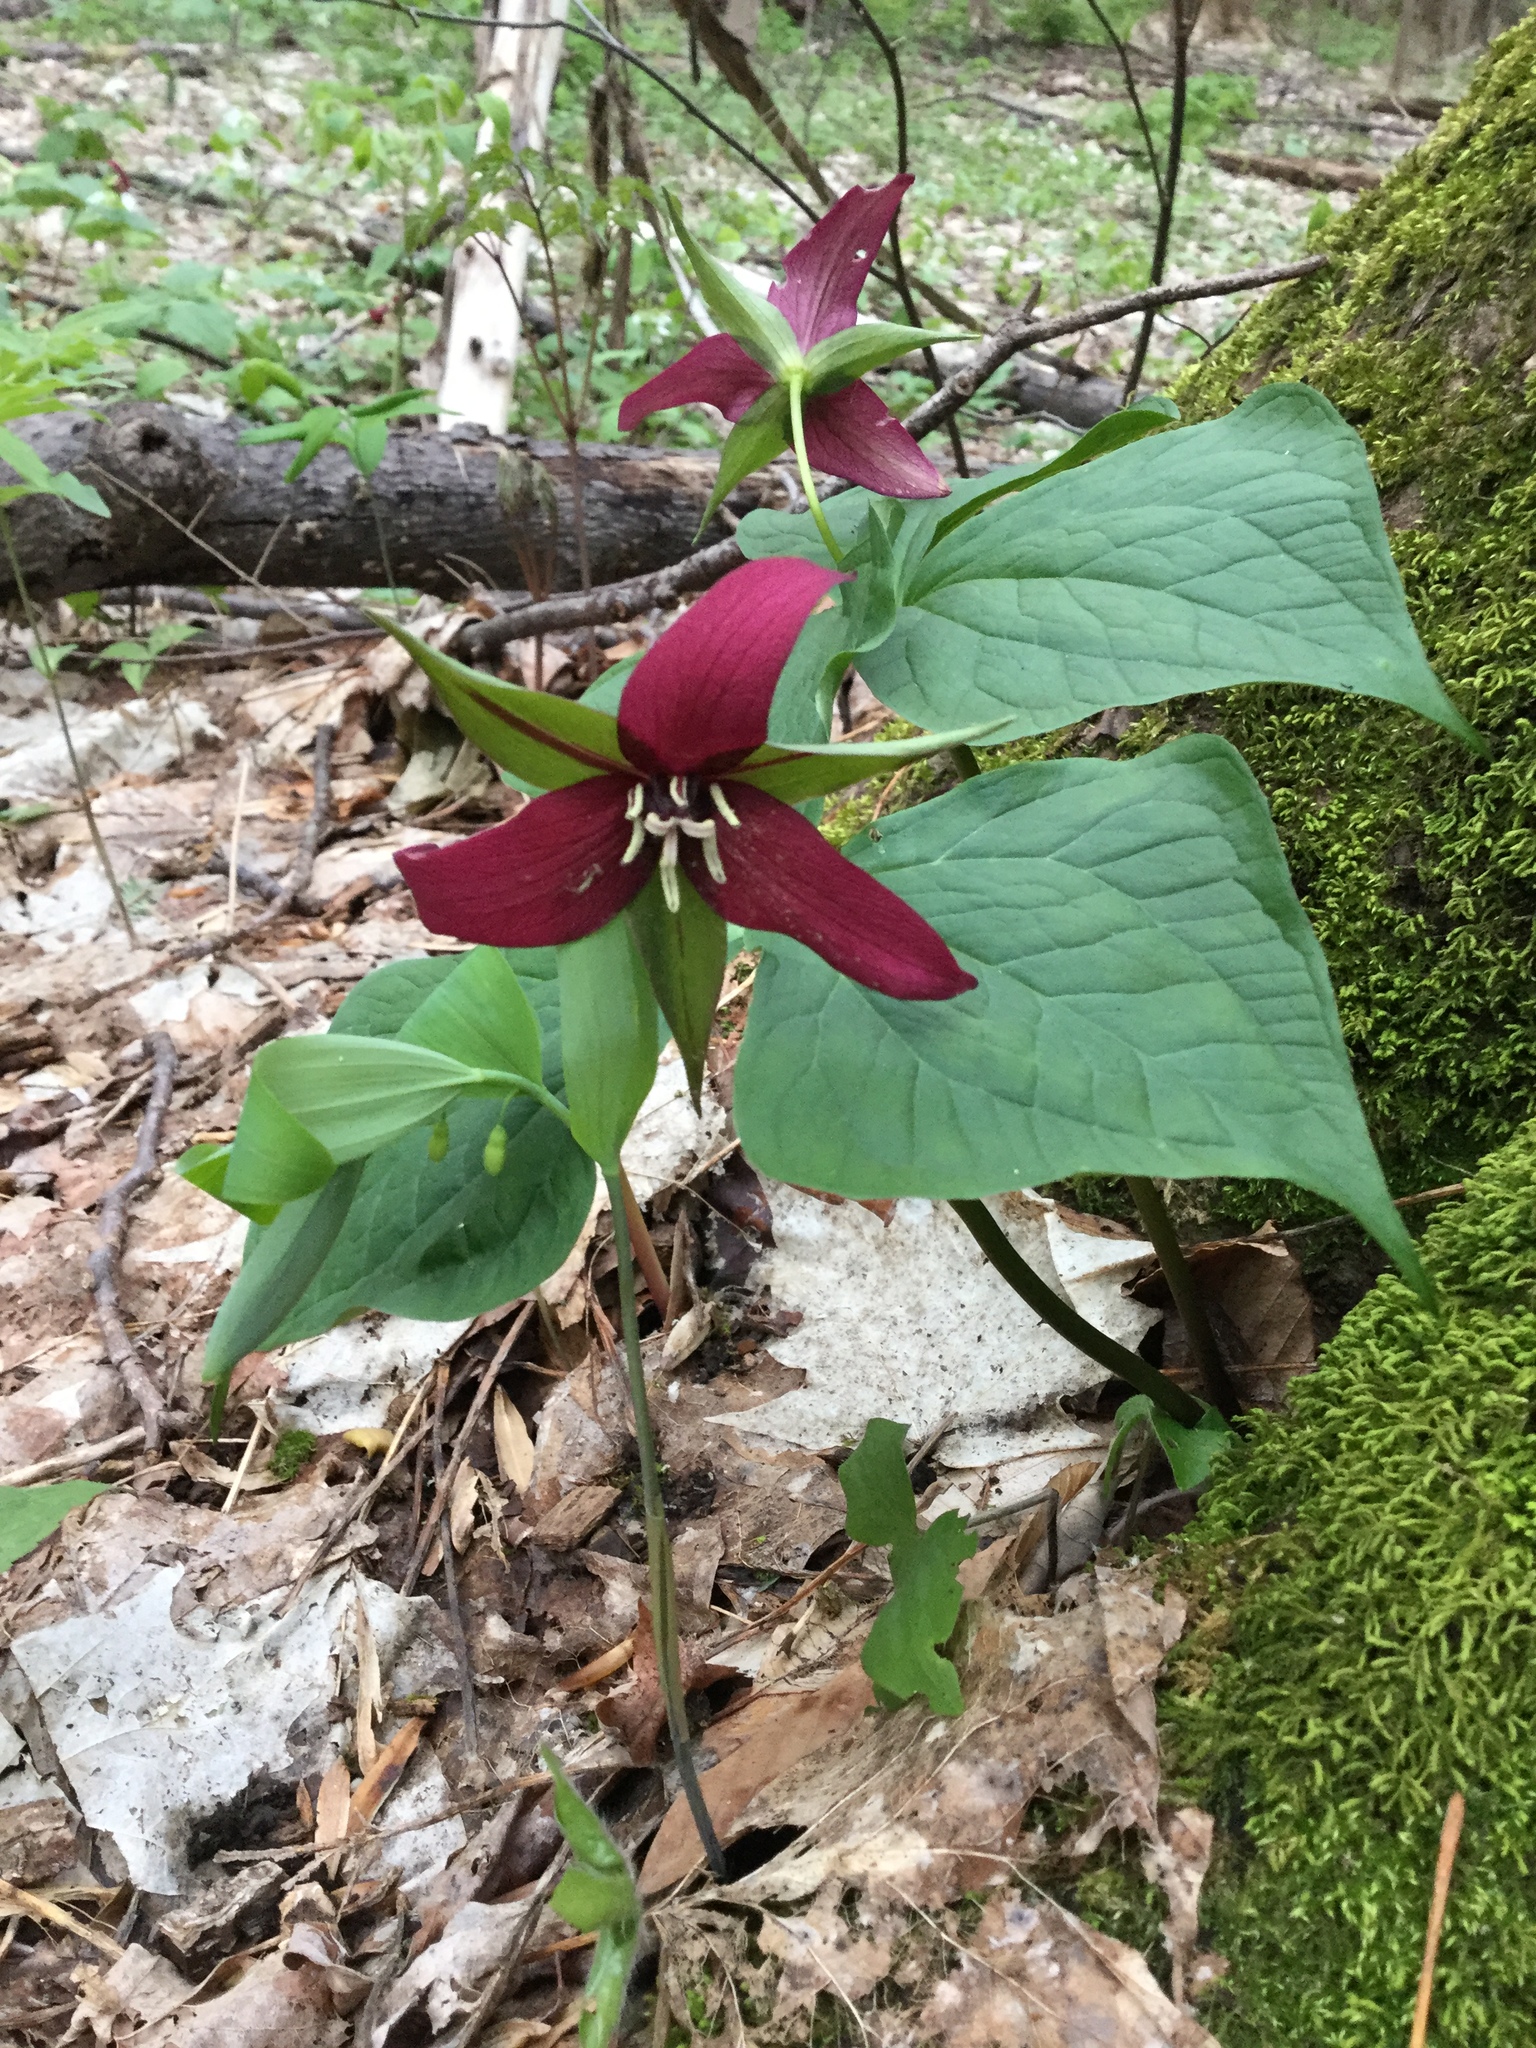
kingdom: Plantae
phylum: Tracheophyta
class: Liliopsida
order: Liliales
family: Melanthiaceae
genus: Trillium
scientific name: Trillium erectum
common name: Purple trillium
